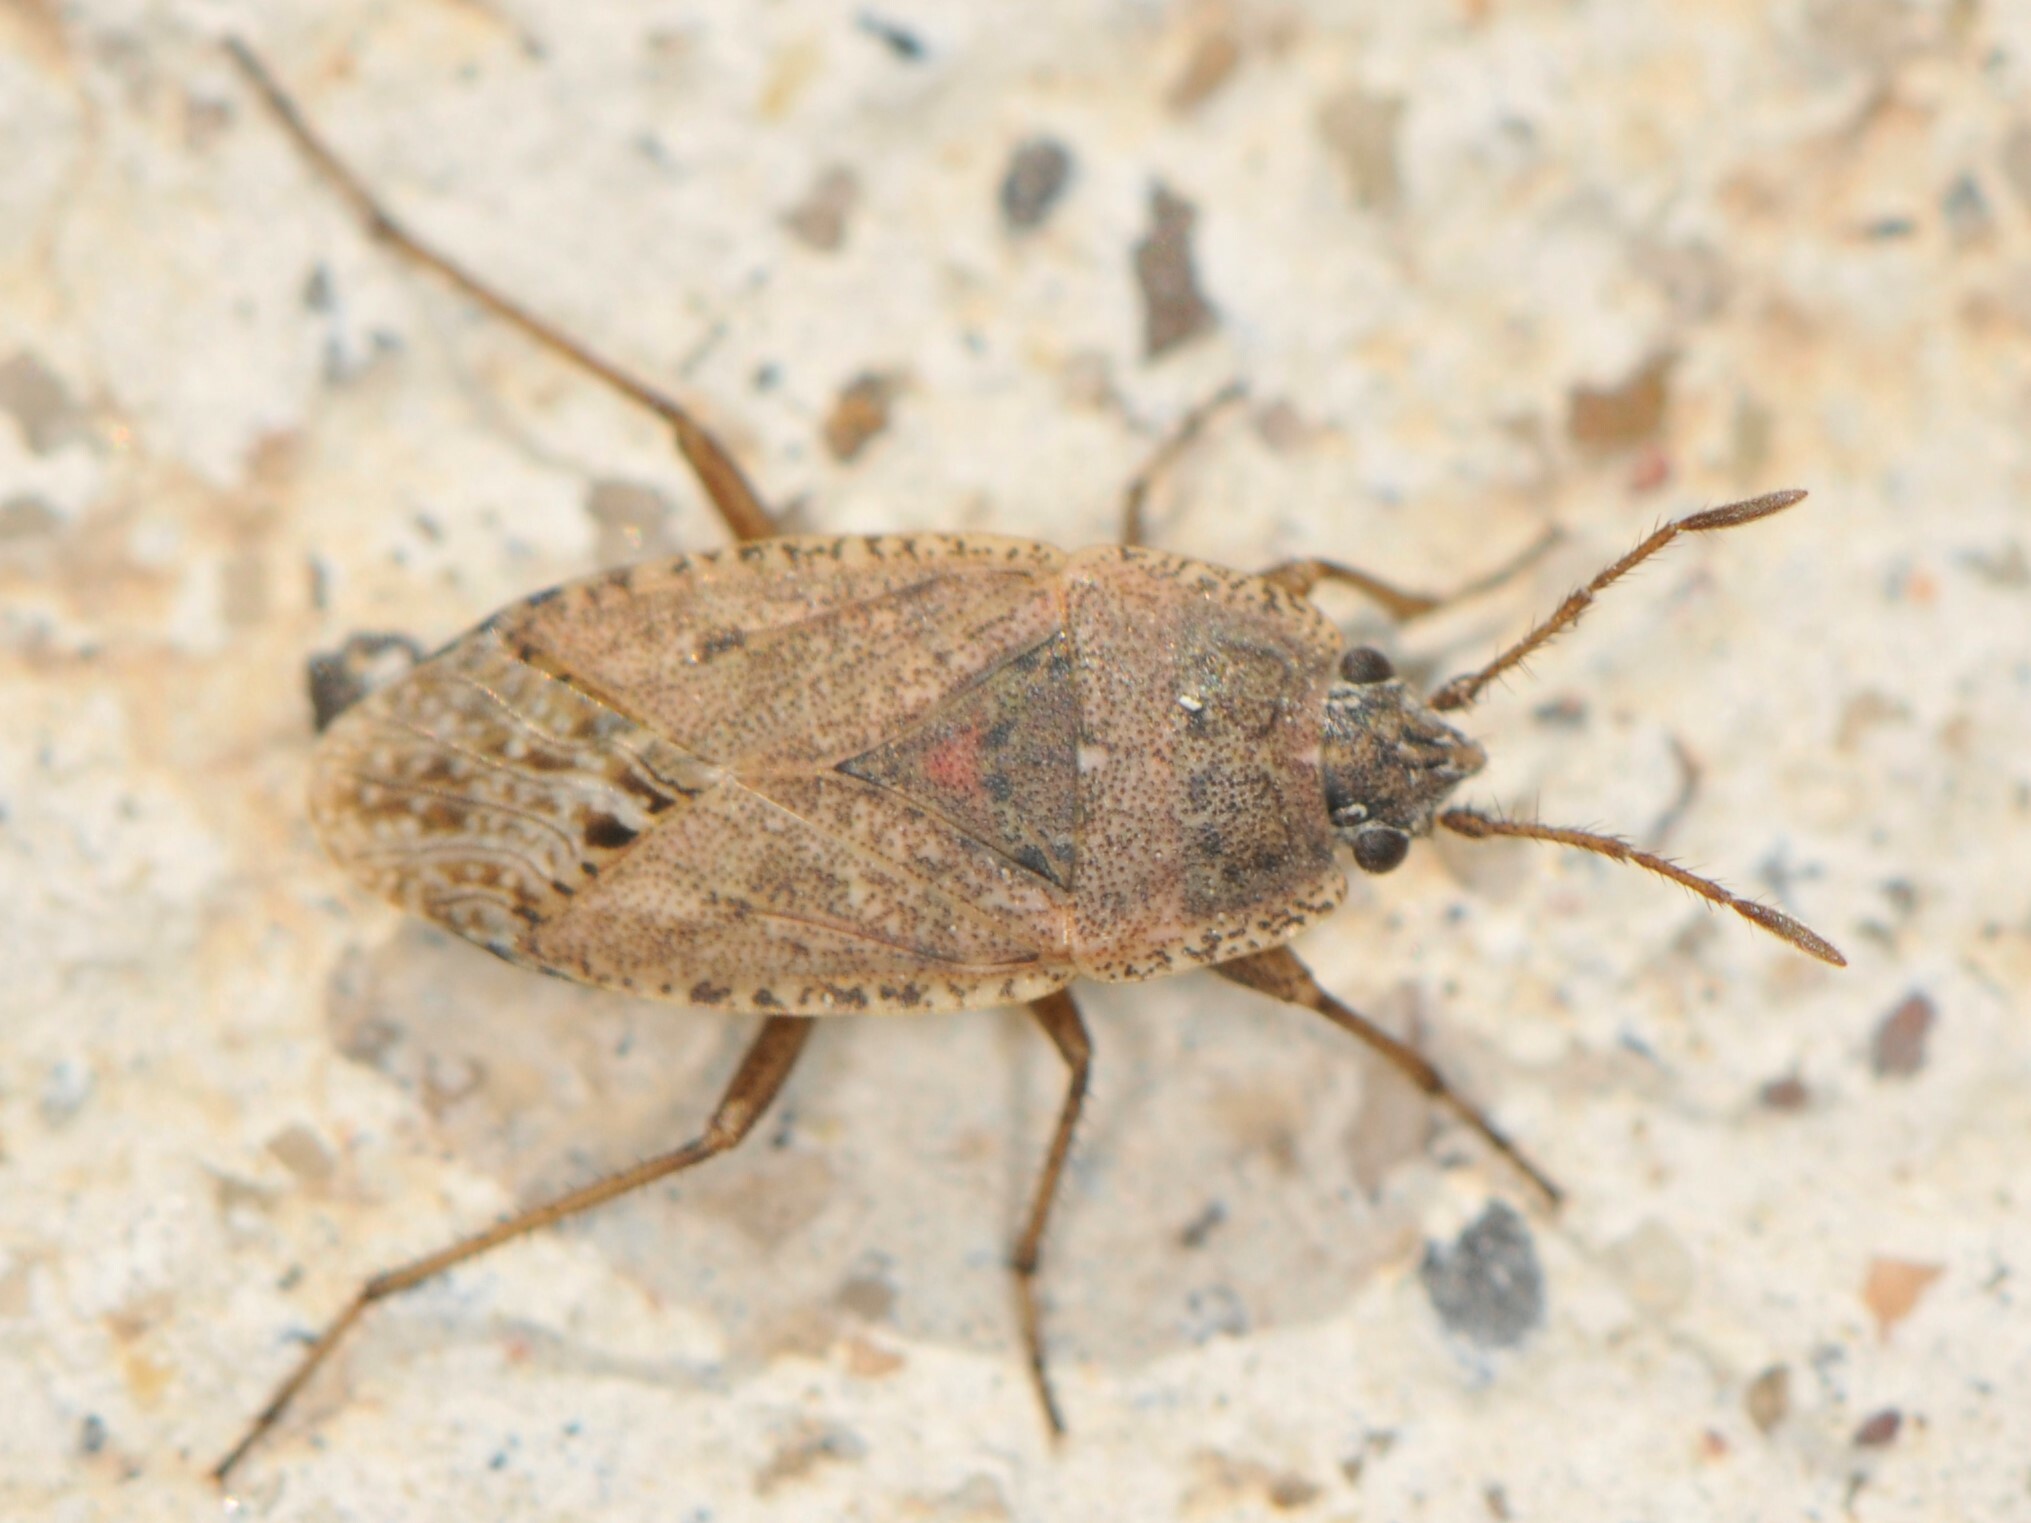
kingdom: Animalia
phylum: Arthropoda
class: Insecta
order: Hemiptera
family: Rhyparochromidae
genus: Emblethis
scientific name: Emblethis vicarius
